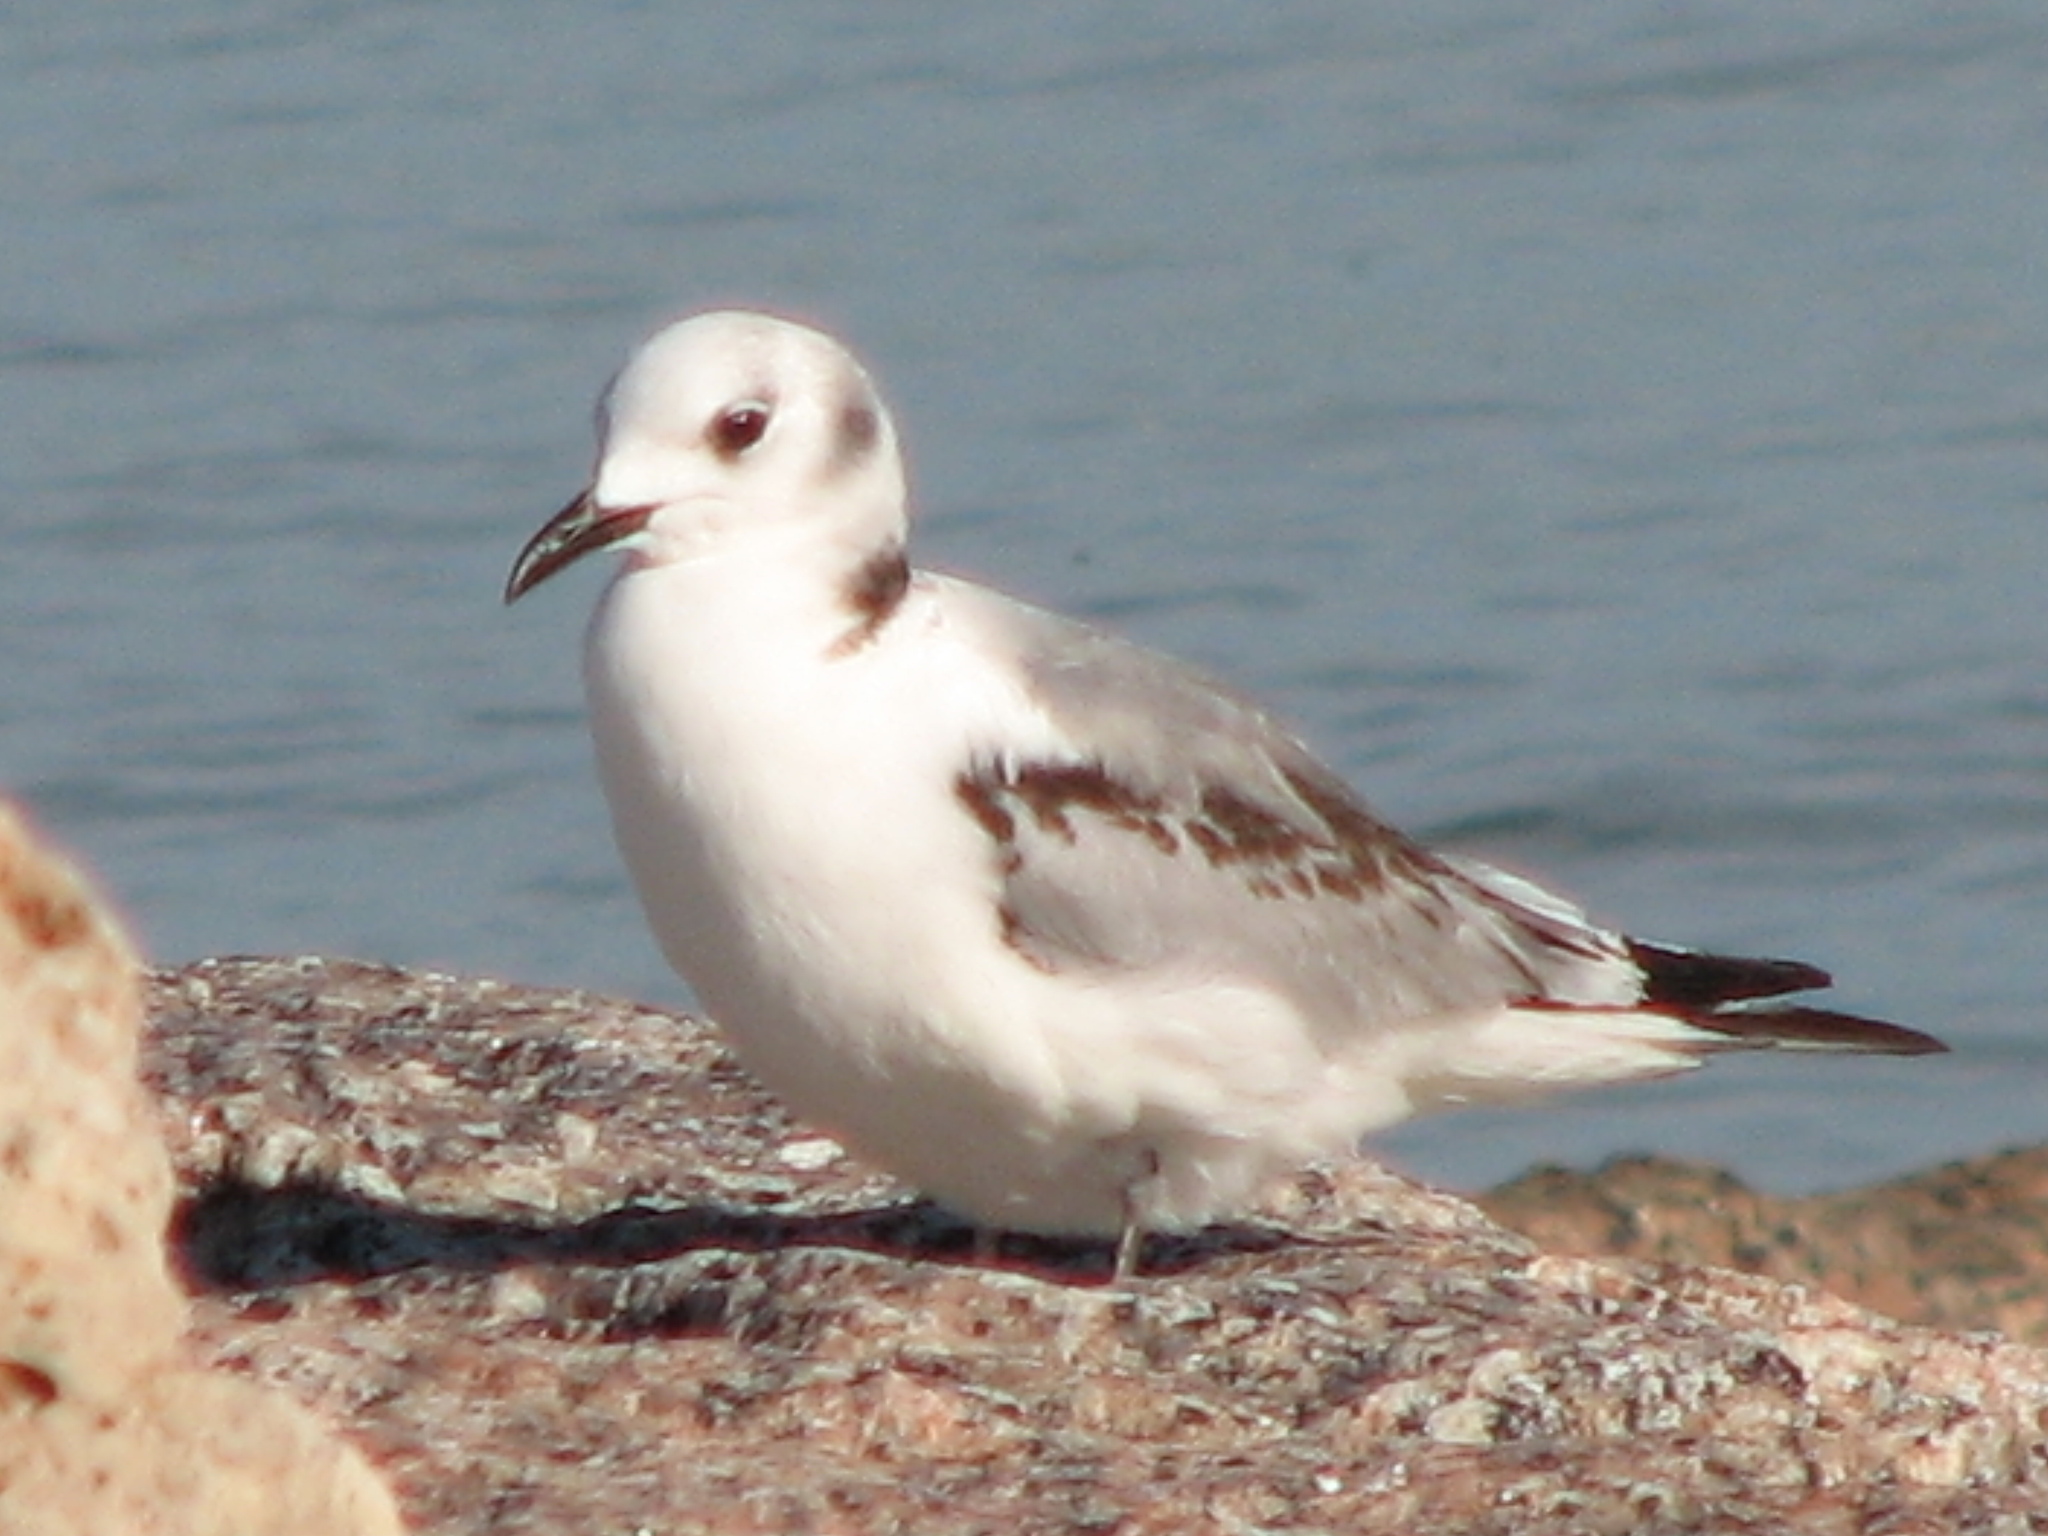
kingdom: Animalia
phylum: Chordata
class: Aves
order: Charadriiformes
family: Laridae
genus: Rissa
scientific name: Rissa tridactyla
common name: Black-legged kittiwake
